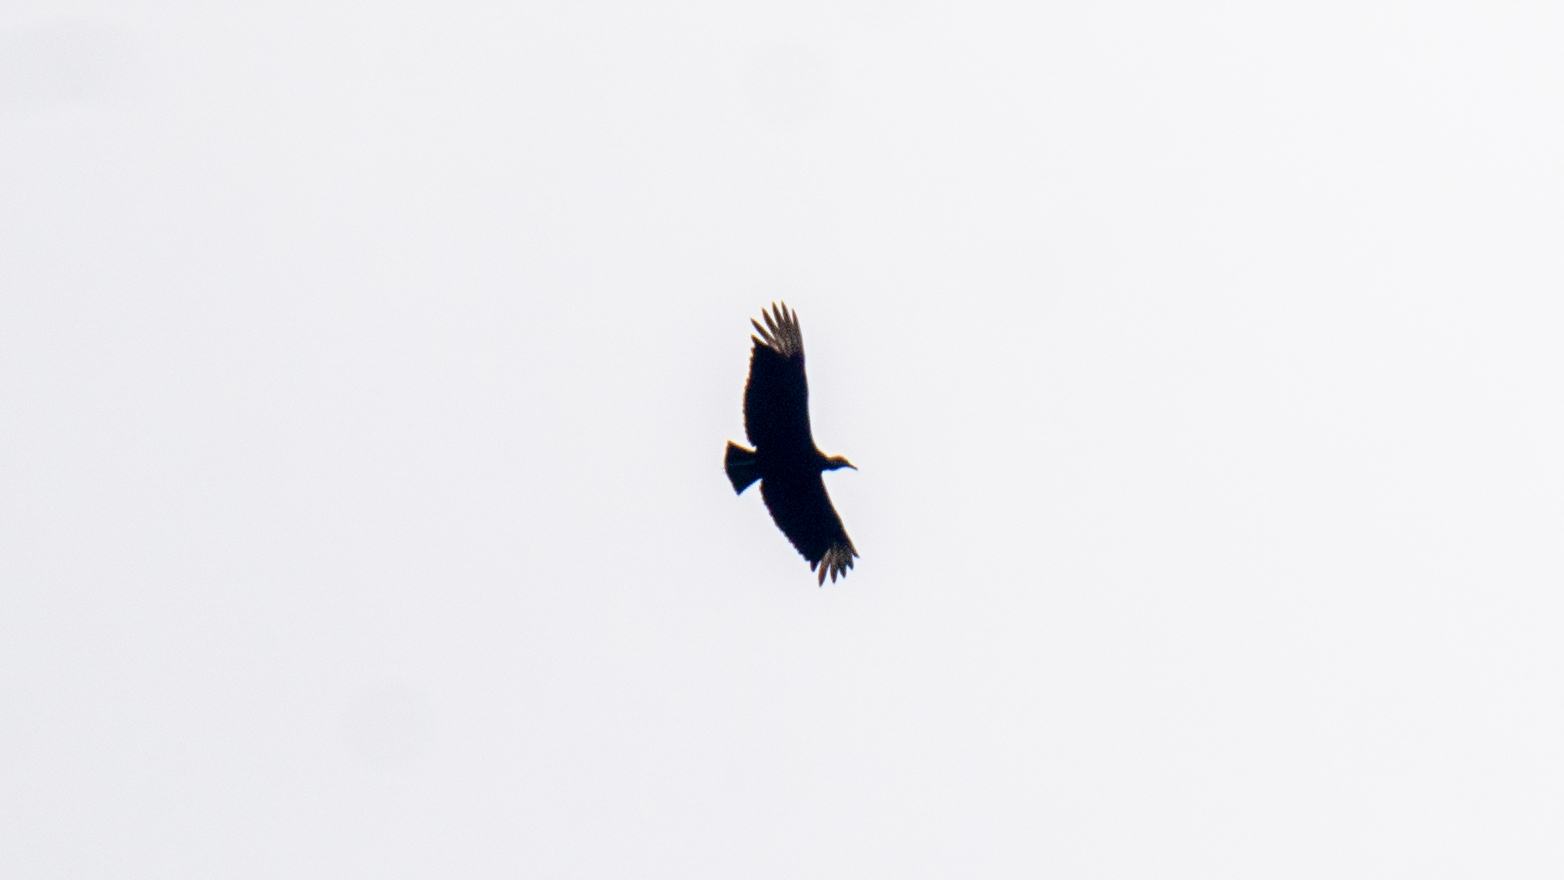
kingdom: Animalia
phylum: Chordata
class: Aves
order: Accipitriformes
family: Cathartidae
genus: Coragyps
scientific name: Coragyps atratus
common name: Black vulture
